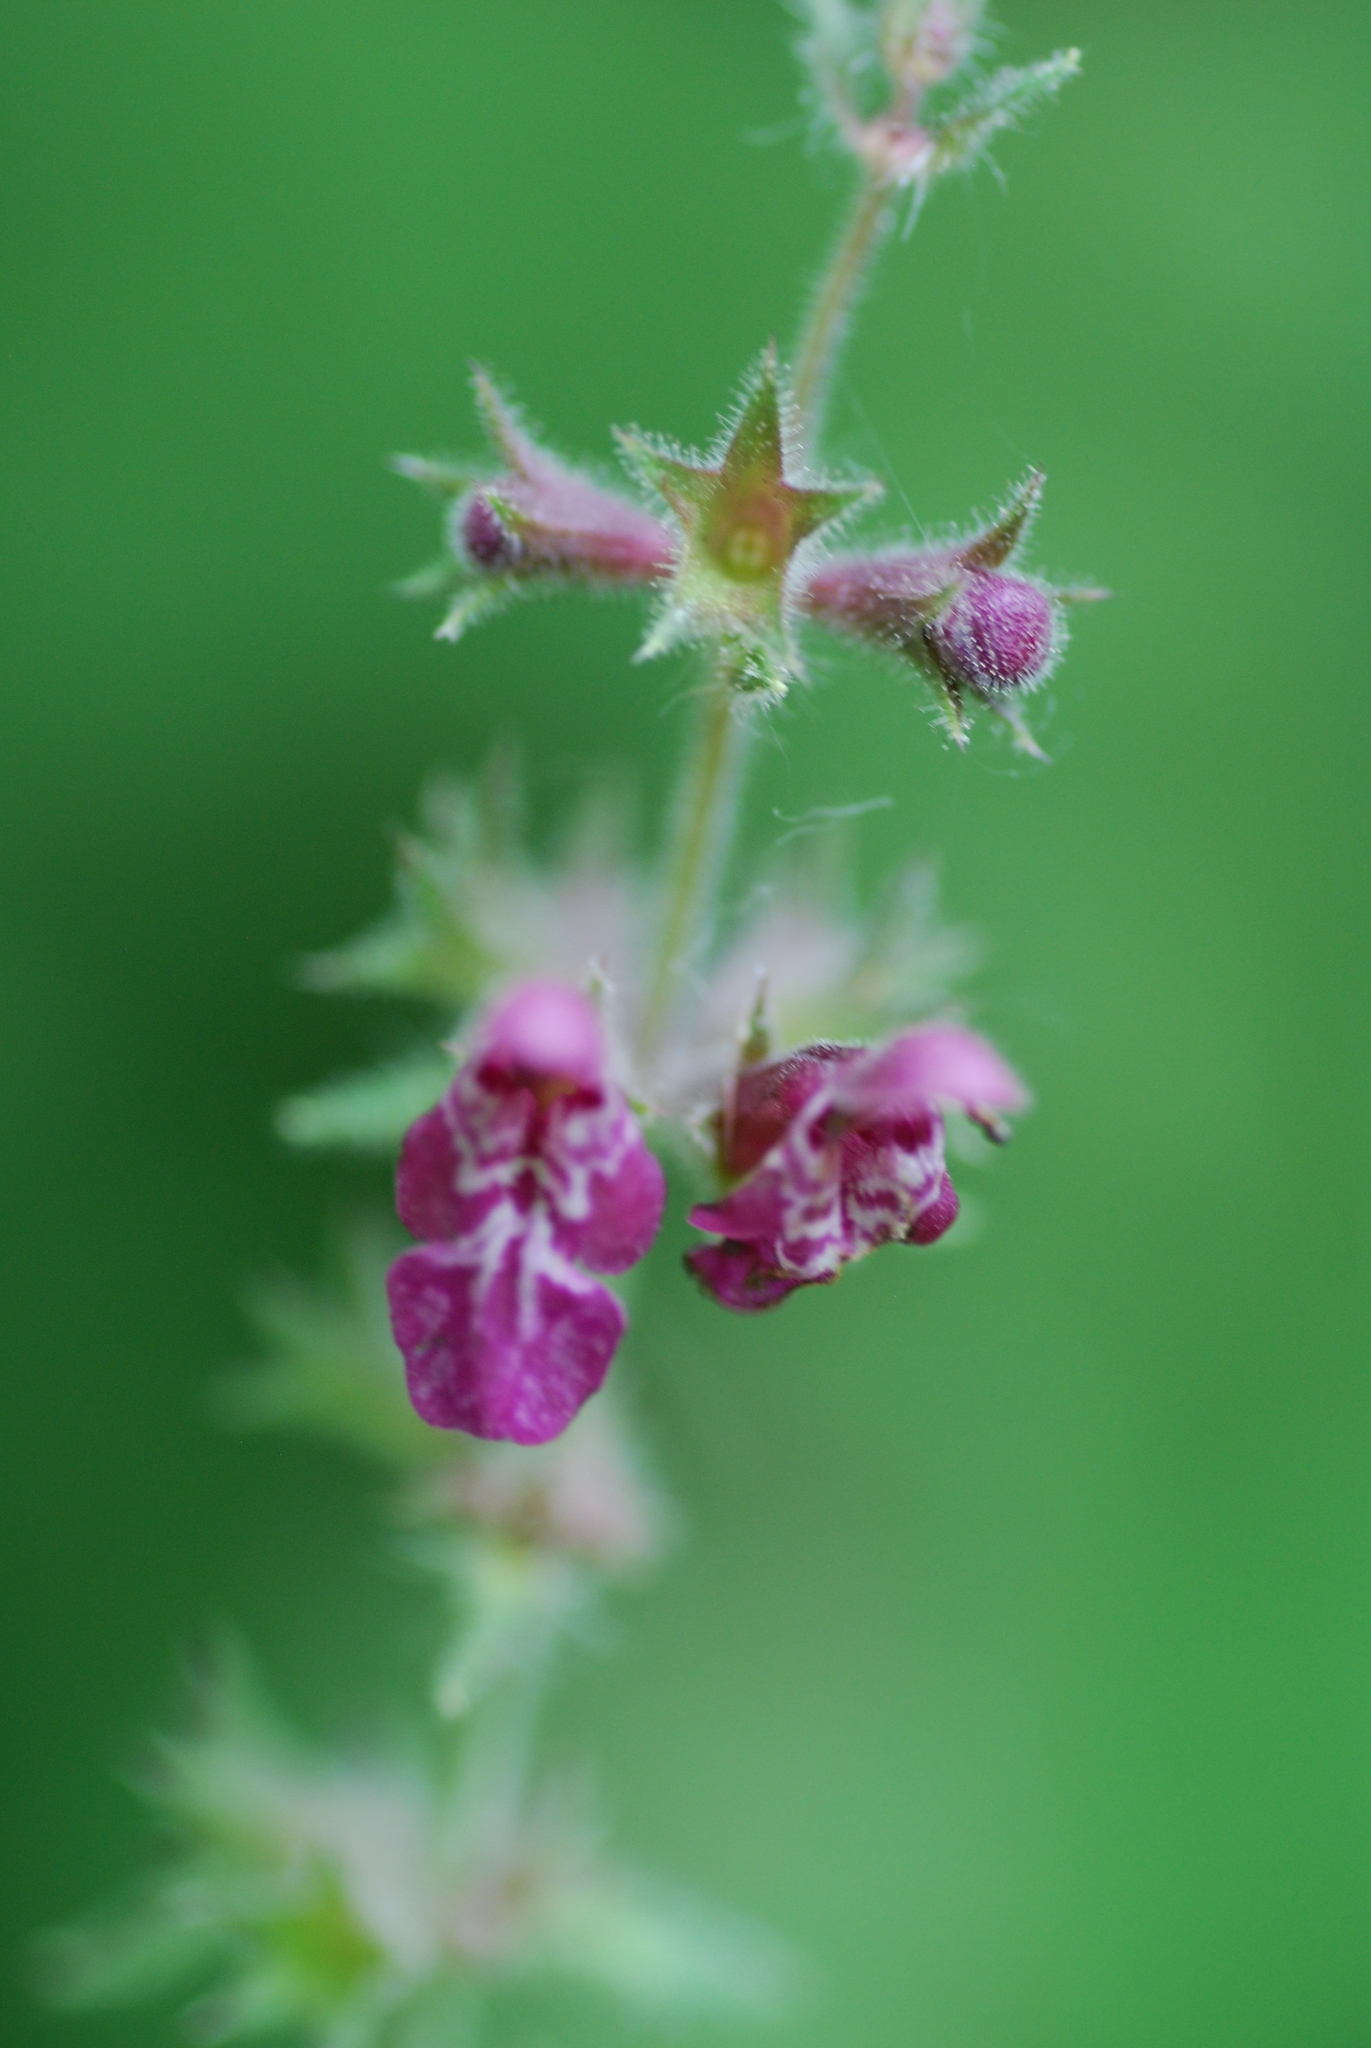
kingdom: Plantae
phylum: Tracheophyta
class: Magnoliopsida
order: Lamiales
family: Lamiaceae
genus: Stachys
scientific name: Stachys sylvatica
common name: Hedge woundwort
